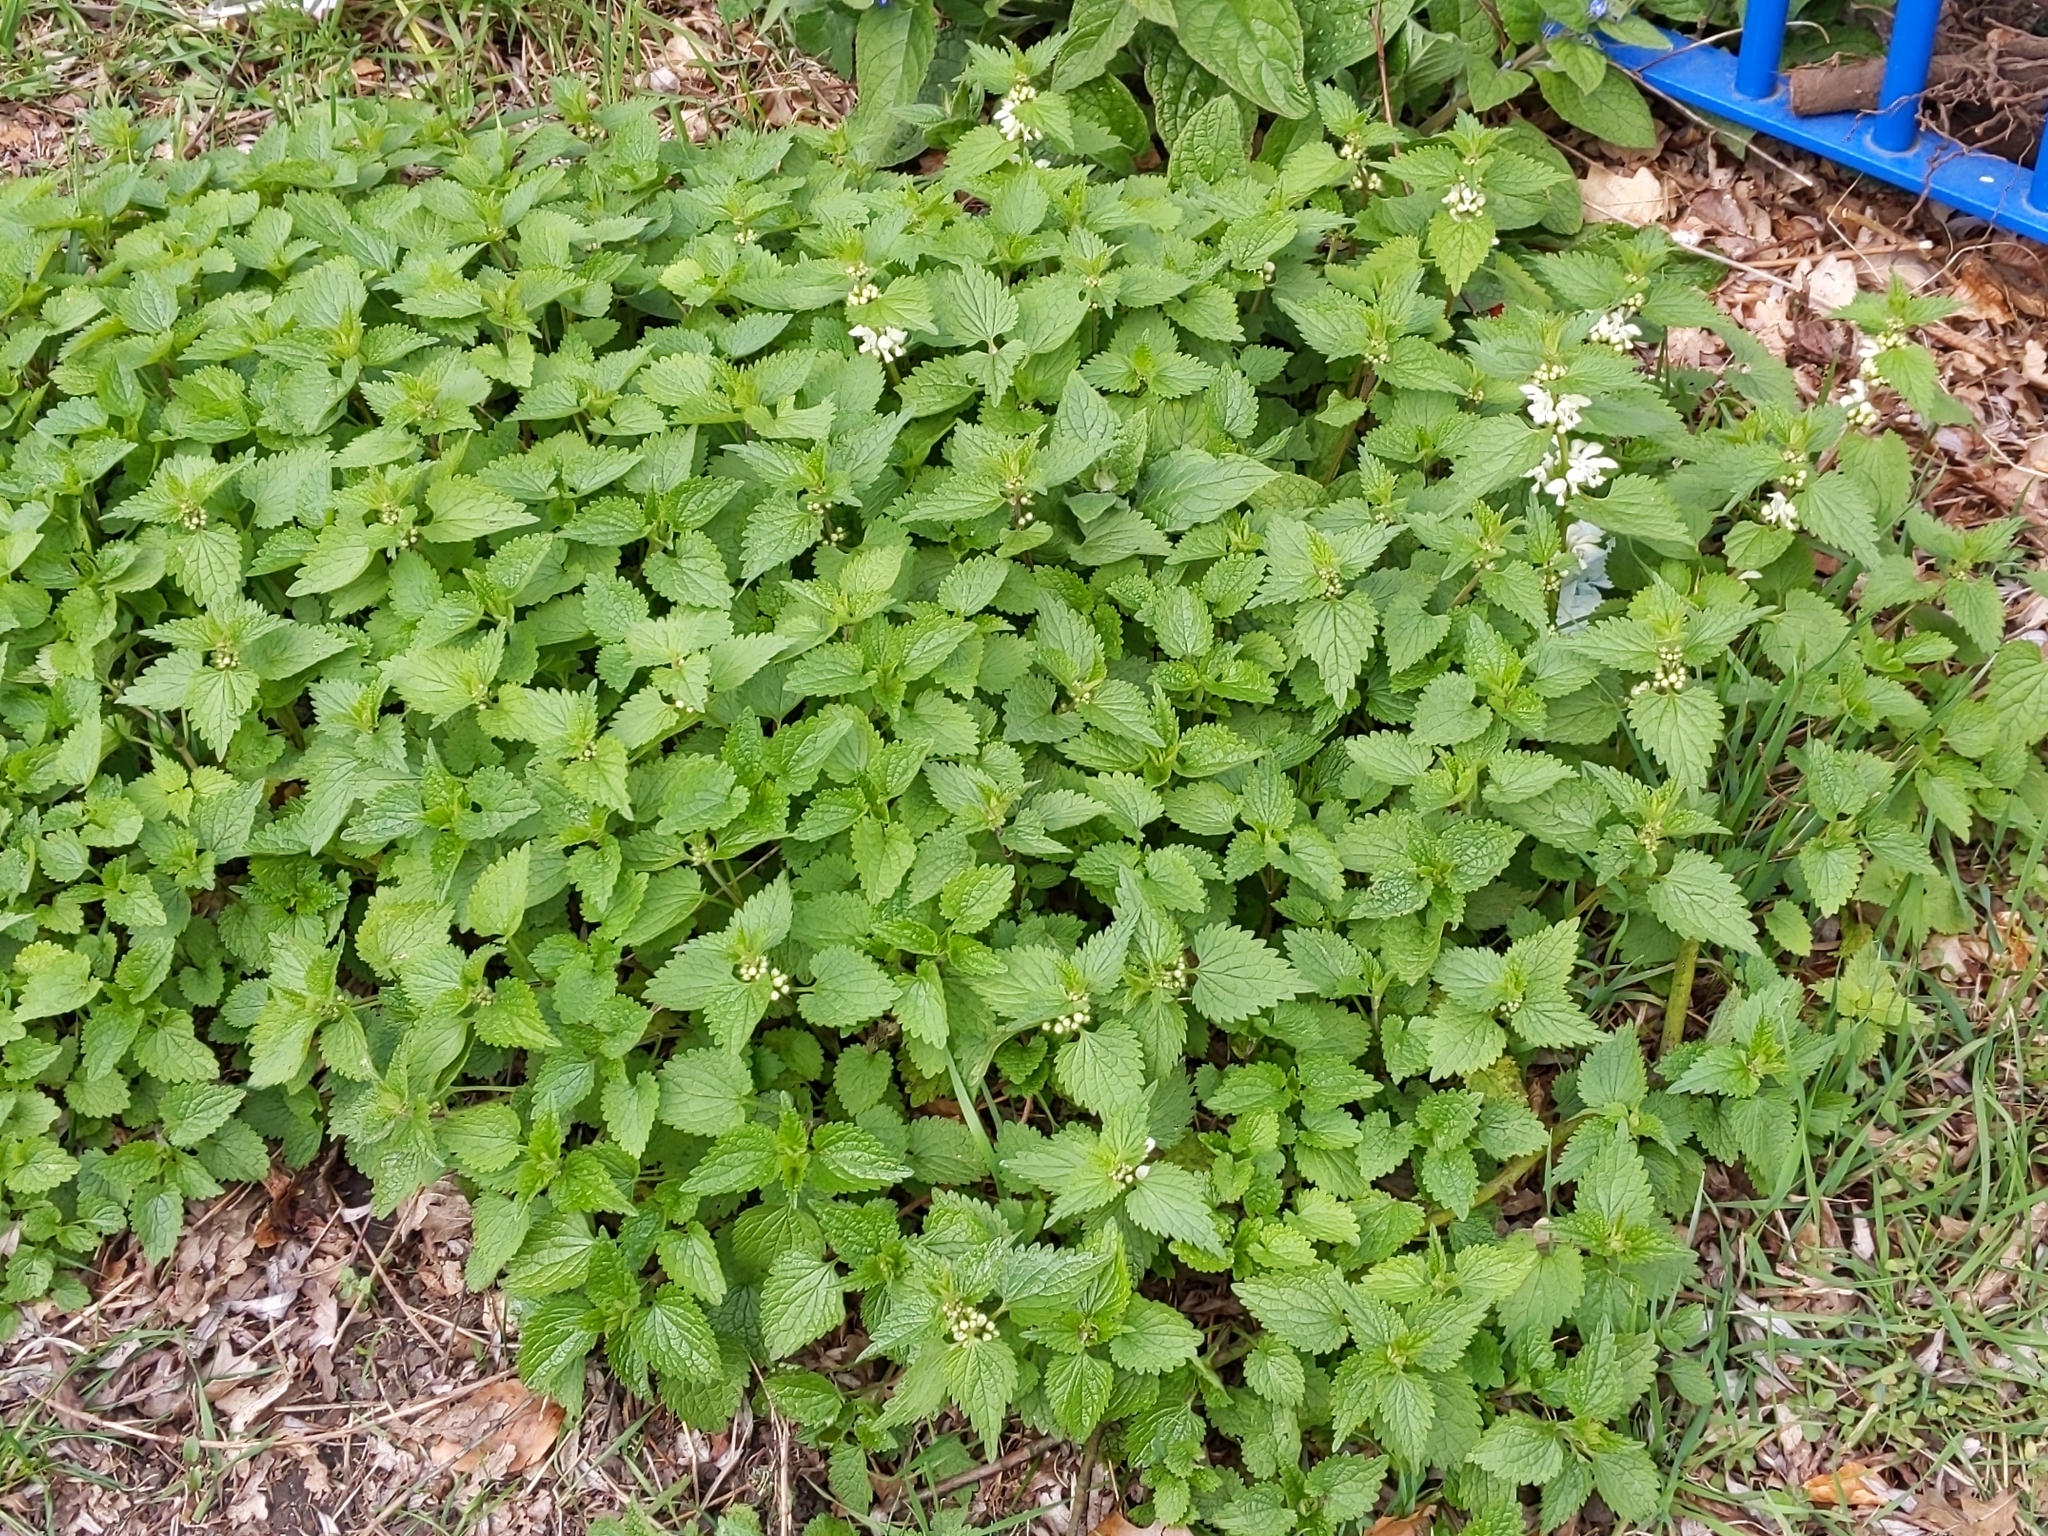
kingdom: Plantae
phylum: Tracheophyta
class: Magnoliopsida
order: Lamiales
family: Lamiaceae
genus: Lamium
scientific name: Lamium album
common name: White dead-nettle
